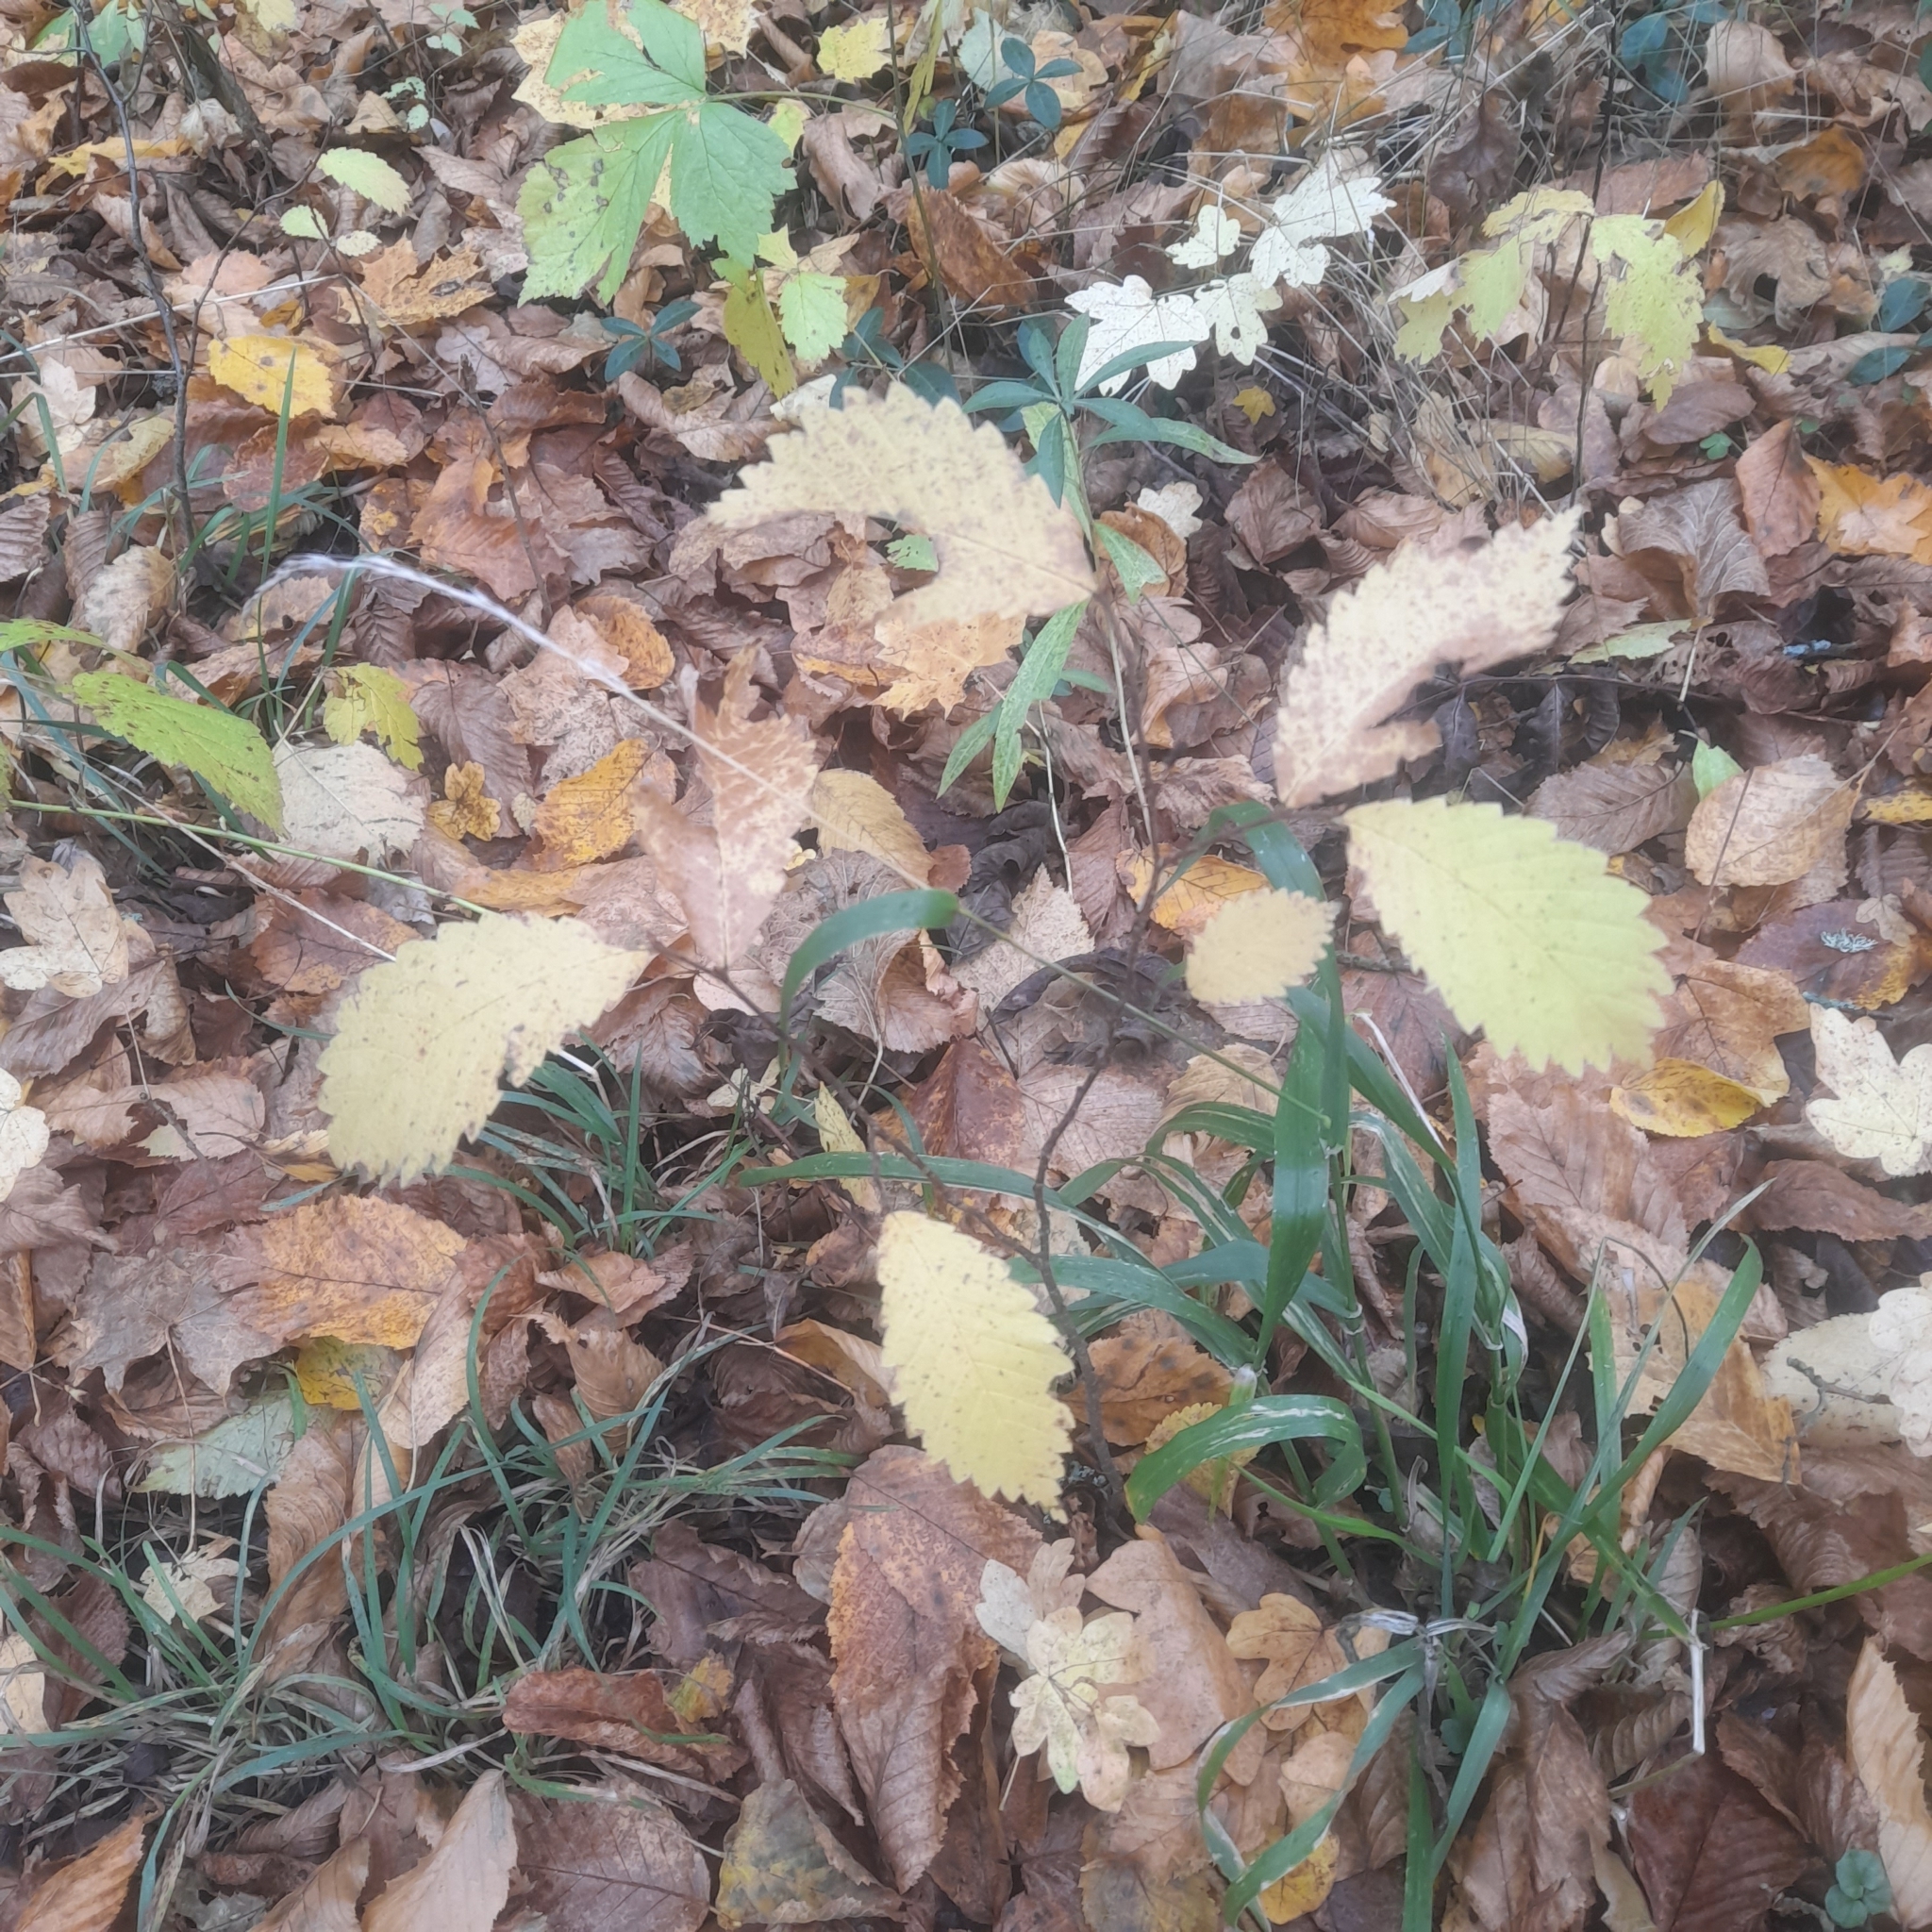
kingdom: Plantae
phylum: Tracheophyta
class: Magnoliopsida
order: Rosales
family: Ulmaceae
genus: Ulmus
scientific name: Ulmus laevis
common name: European white-elm
